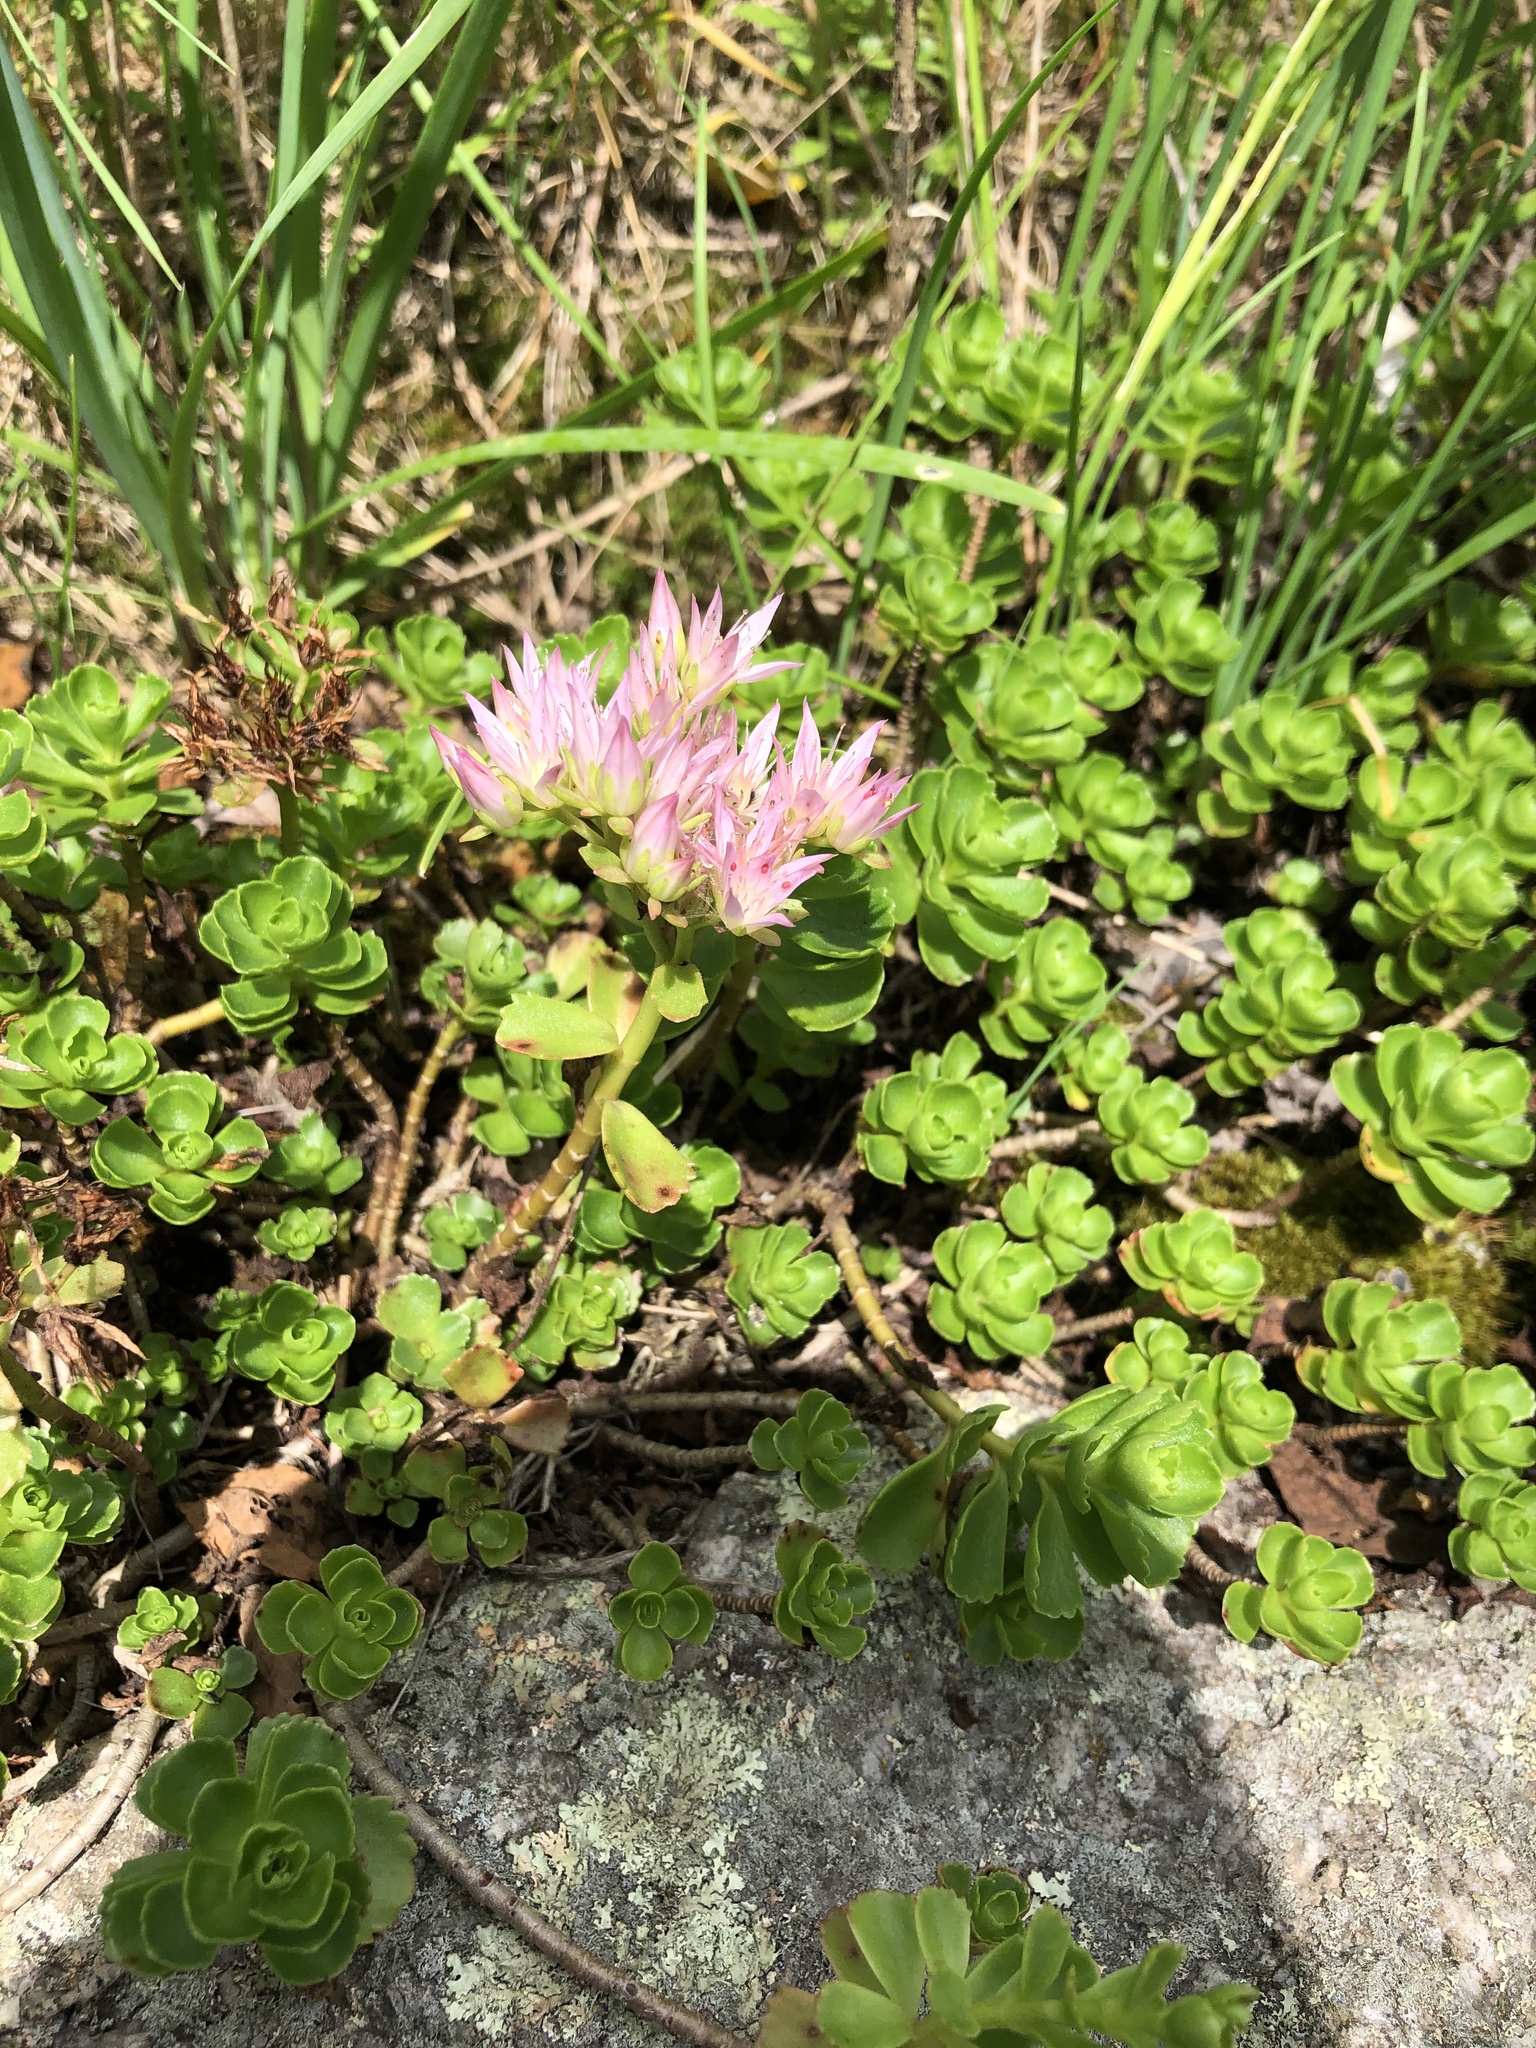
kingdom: Plantae
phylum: Tracheophyta
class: Magnoliopsida
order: Saxifragales
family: Crassulaceae
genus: Phedimus
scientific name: Phedimus spurius
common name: Caucasian stonecrop
